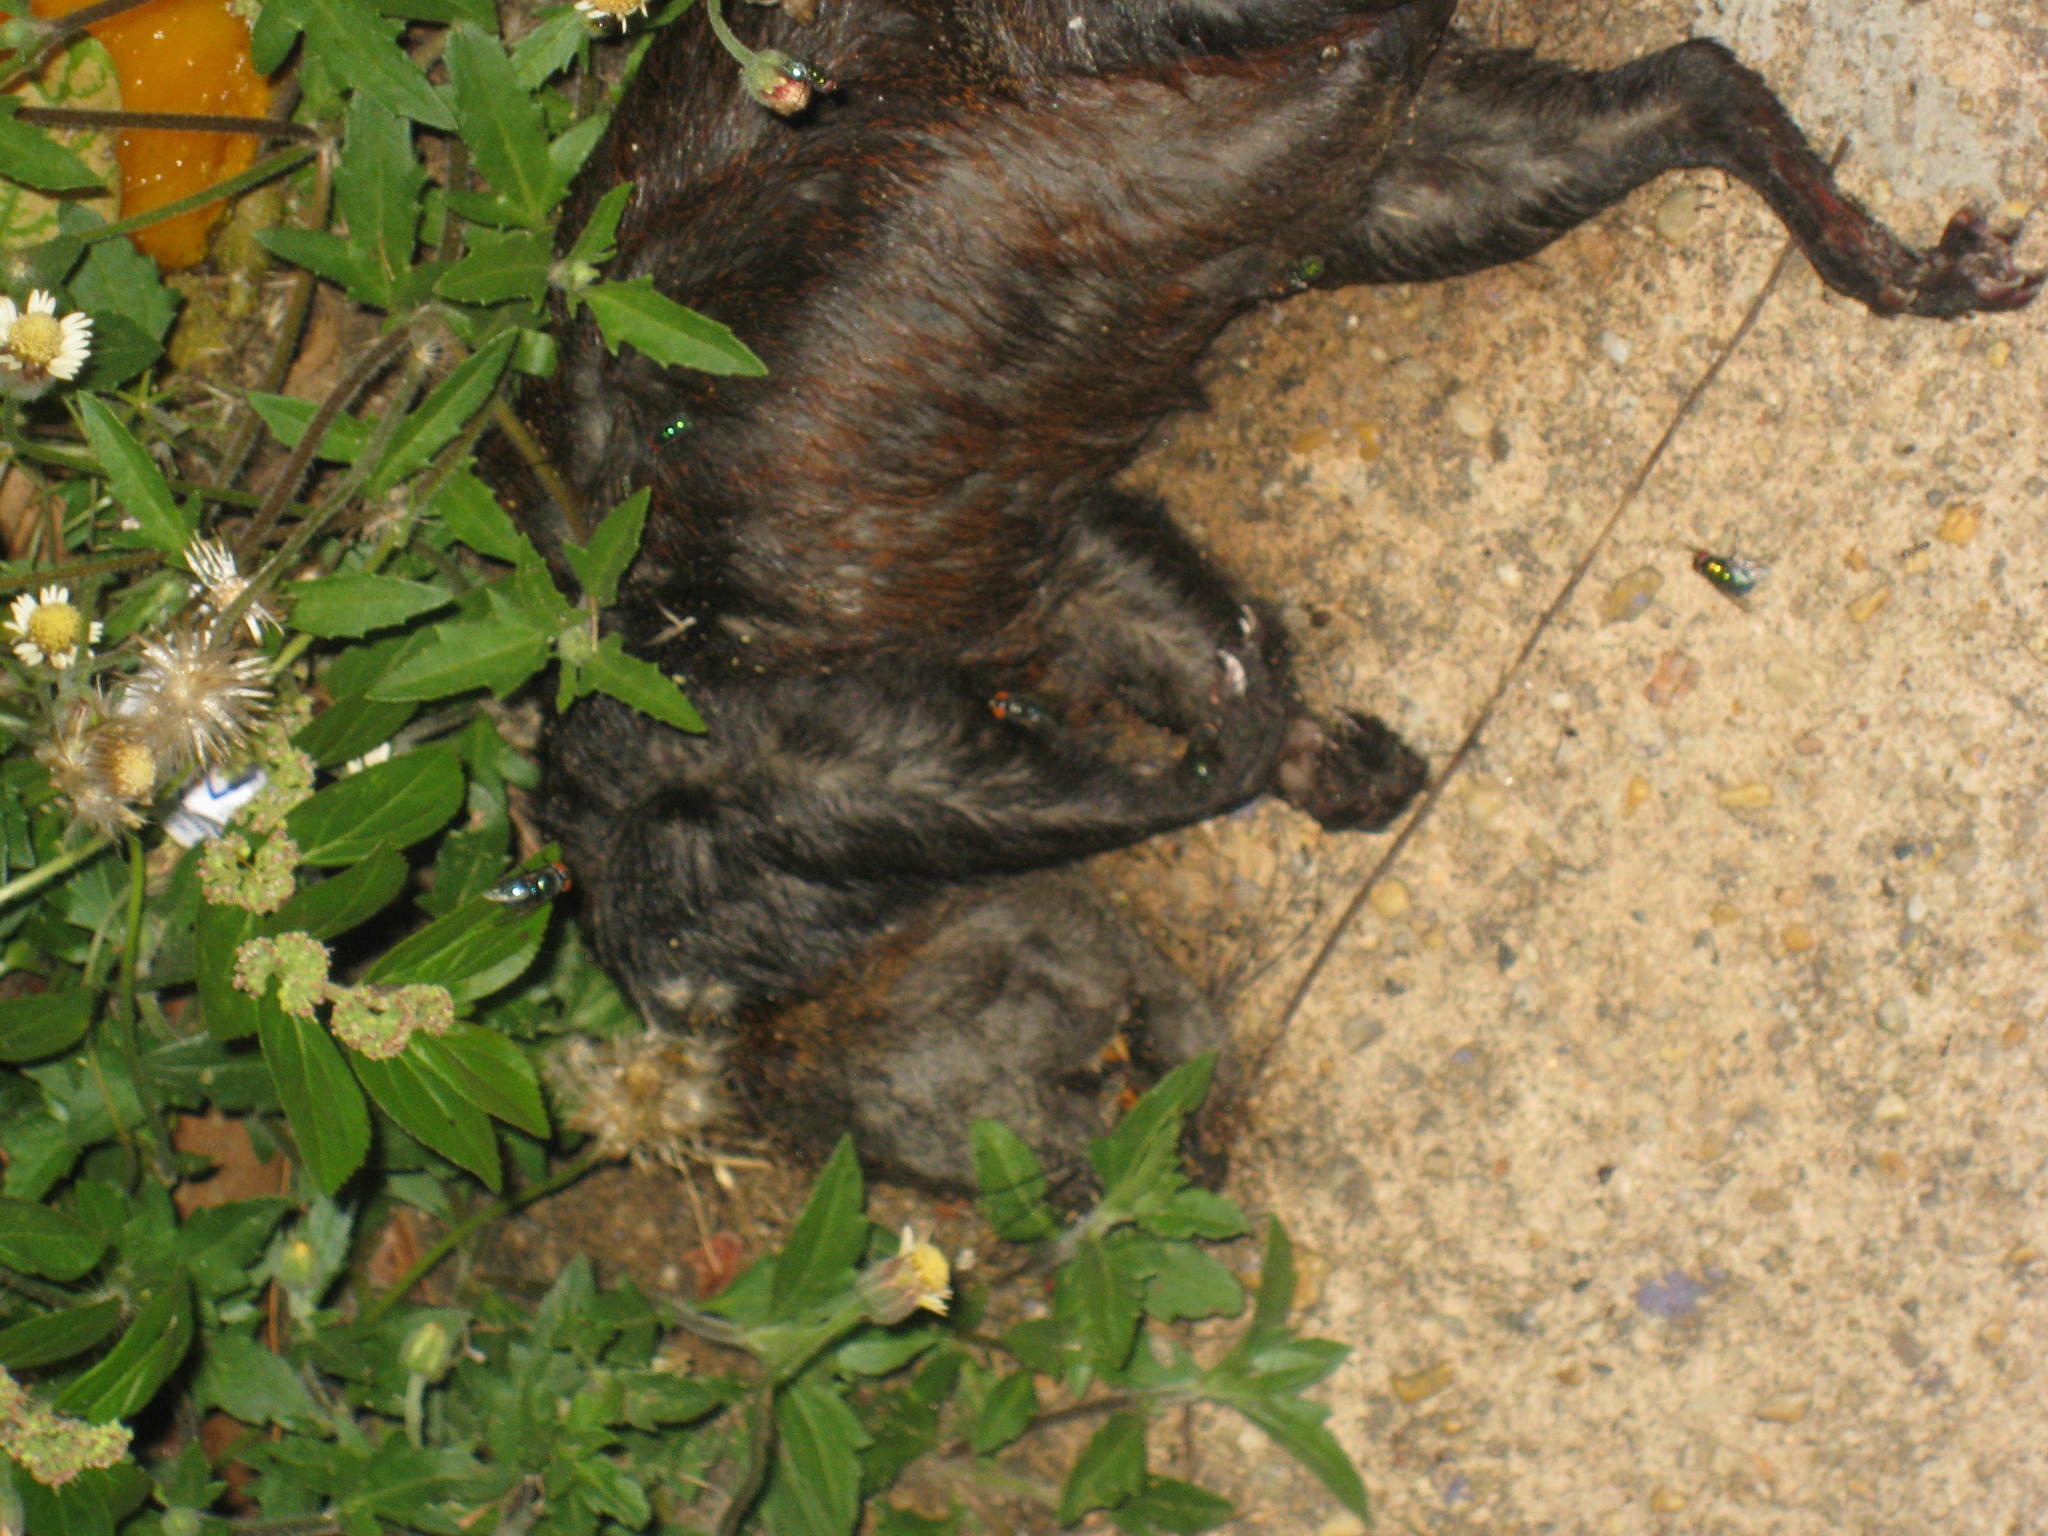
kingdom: Animalia
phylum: Chordata
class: Mammalia
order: Rodentia
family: Sciuridae
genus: Sciurus
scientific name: Sciurus aureogaster
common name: Red-bellied squirrel
